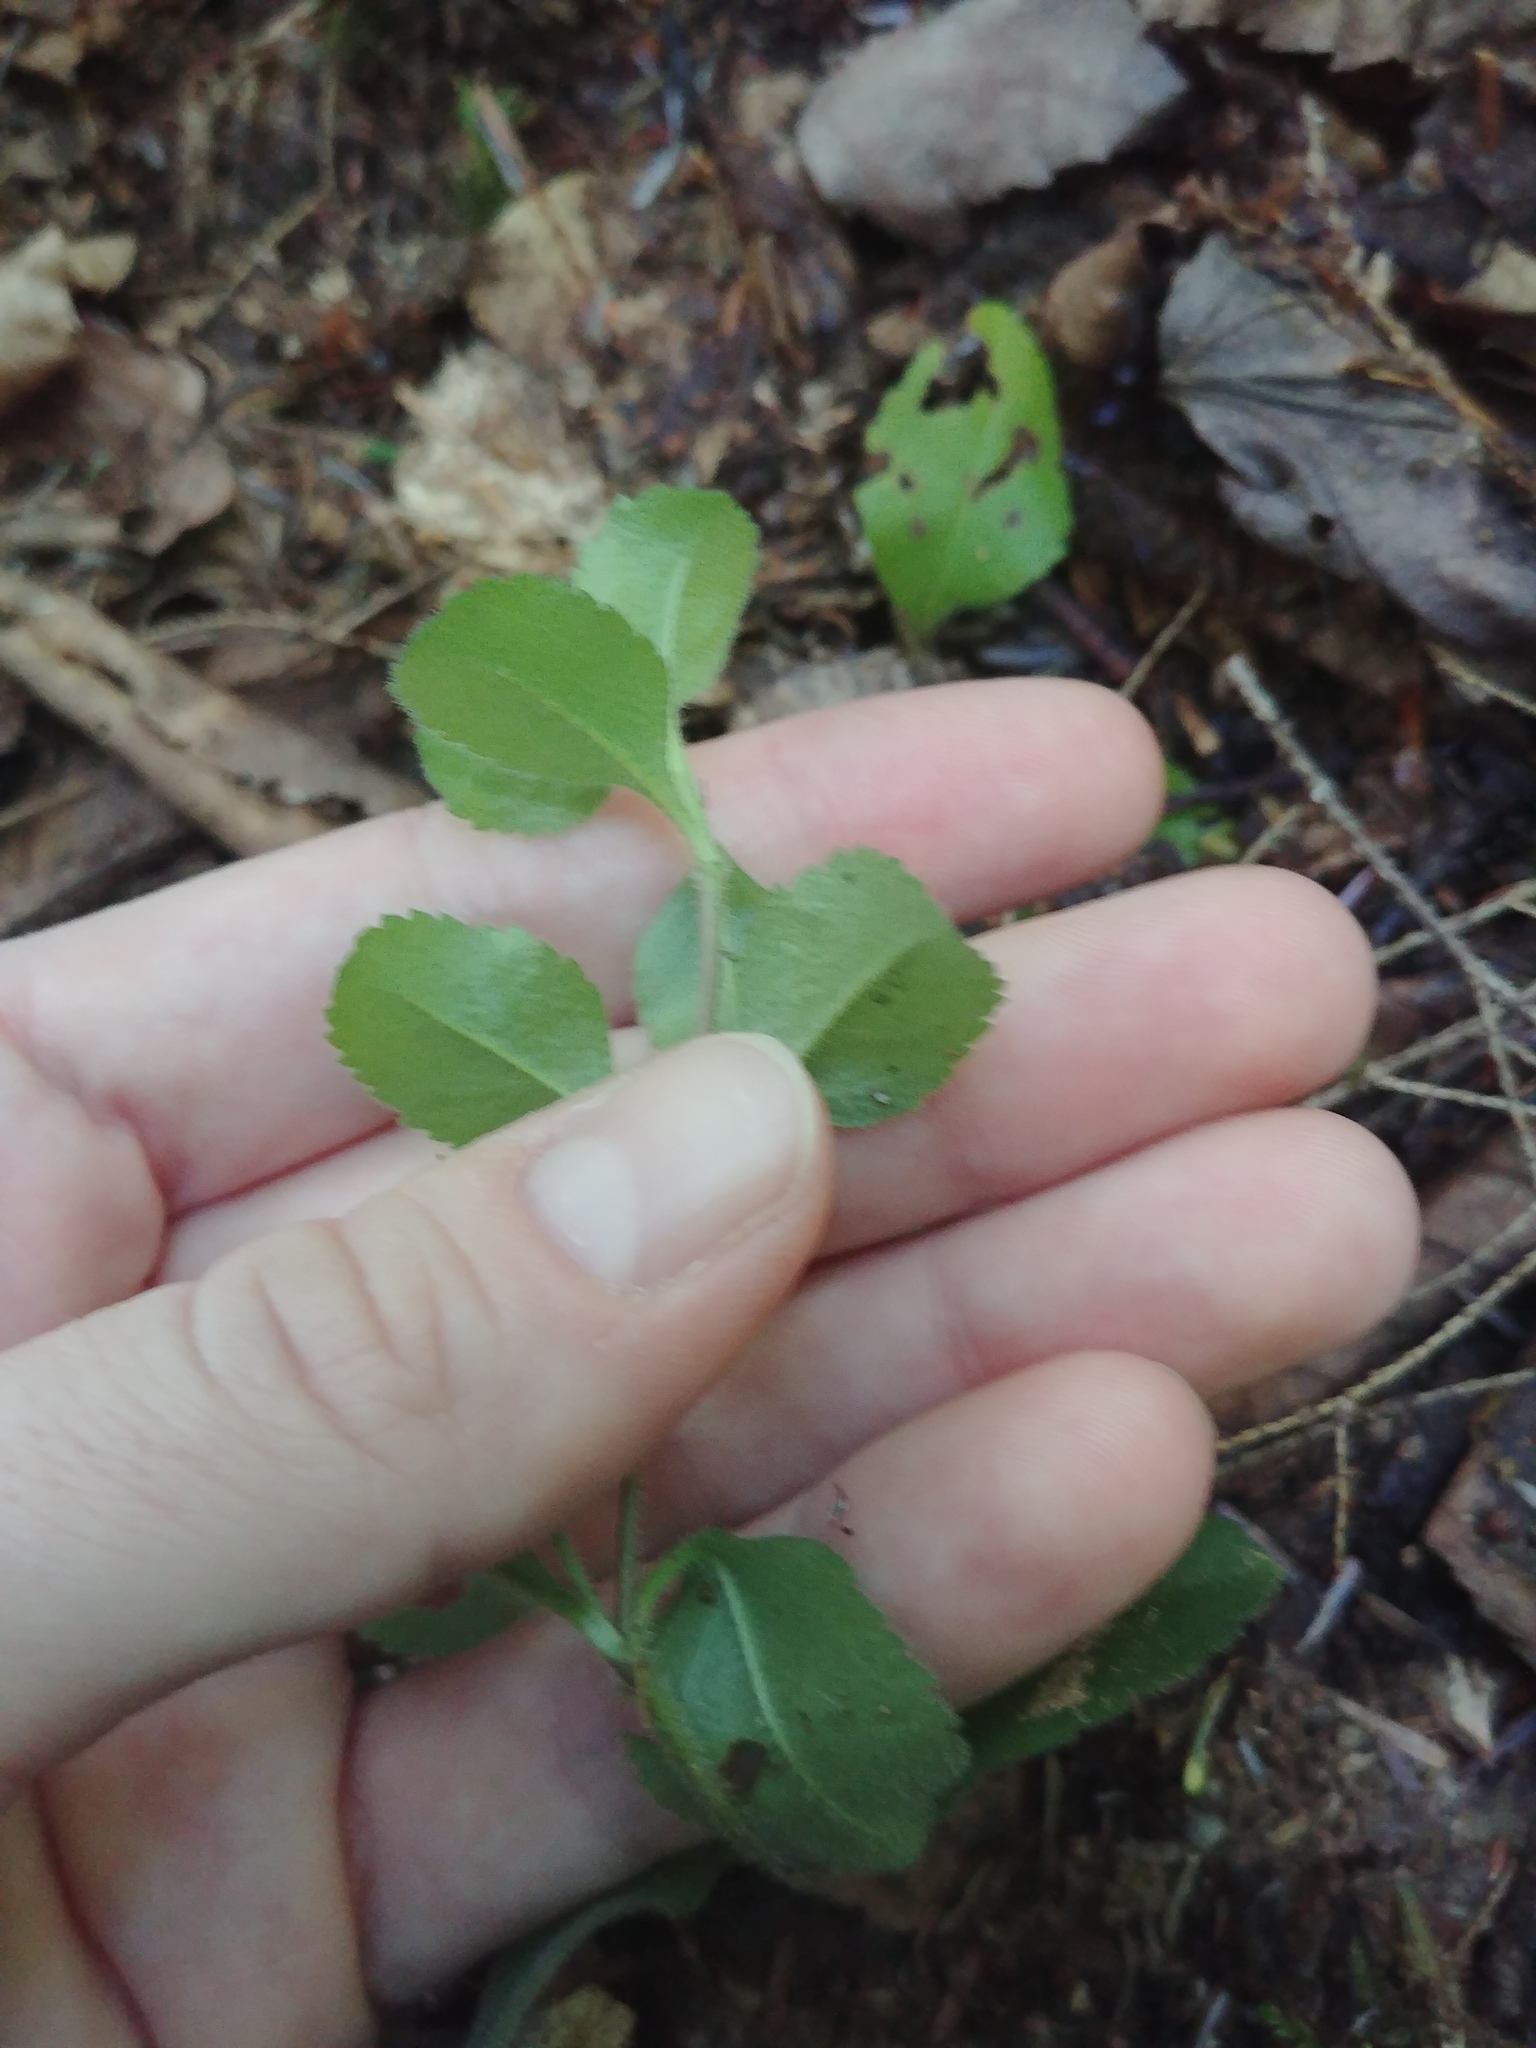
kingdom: Plantae
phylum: Tracheophyta
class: Magnoliopsida
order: Lamiales
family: Plantaginaceae
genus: Veronica
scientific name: Veronica officinalis
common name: Common speedwell
